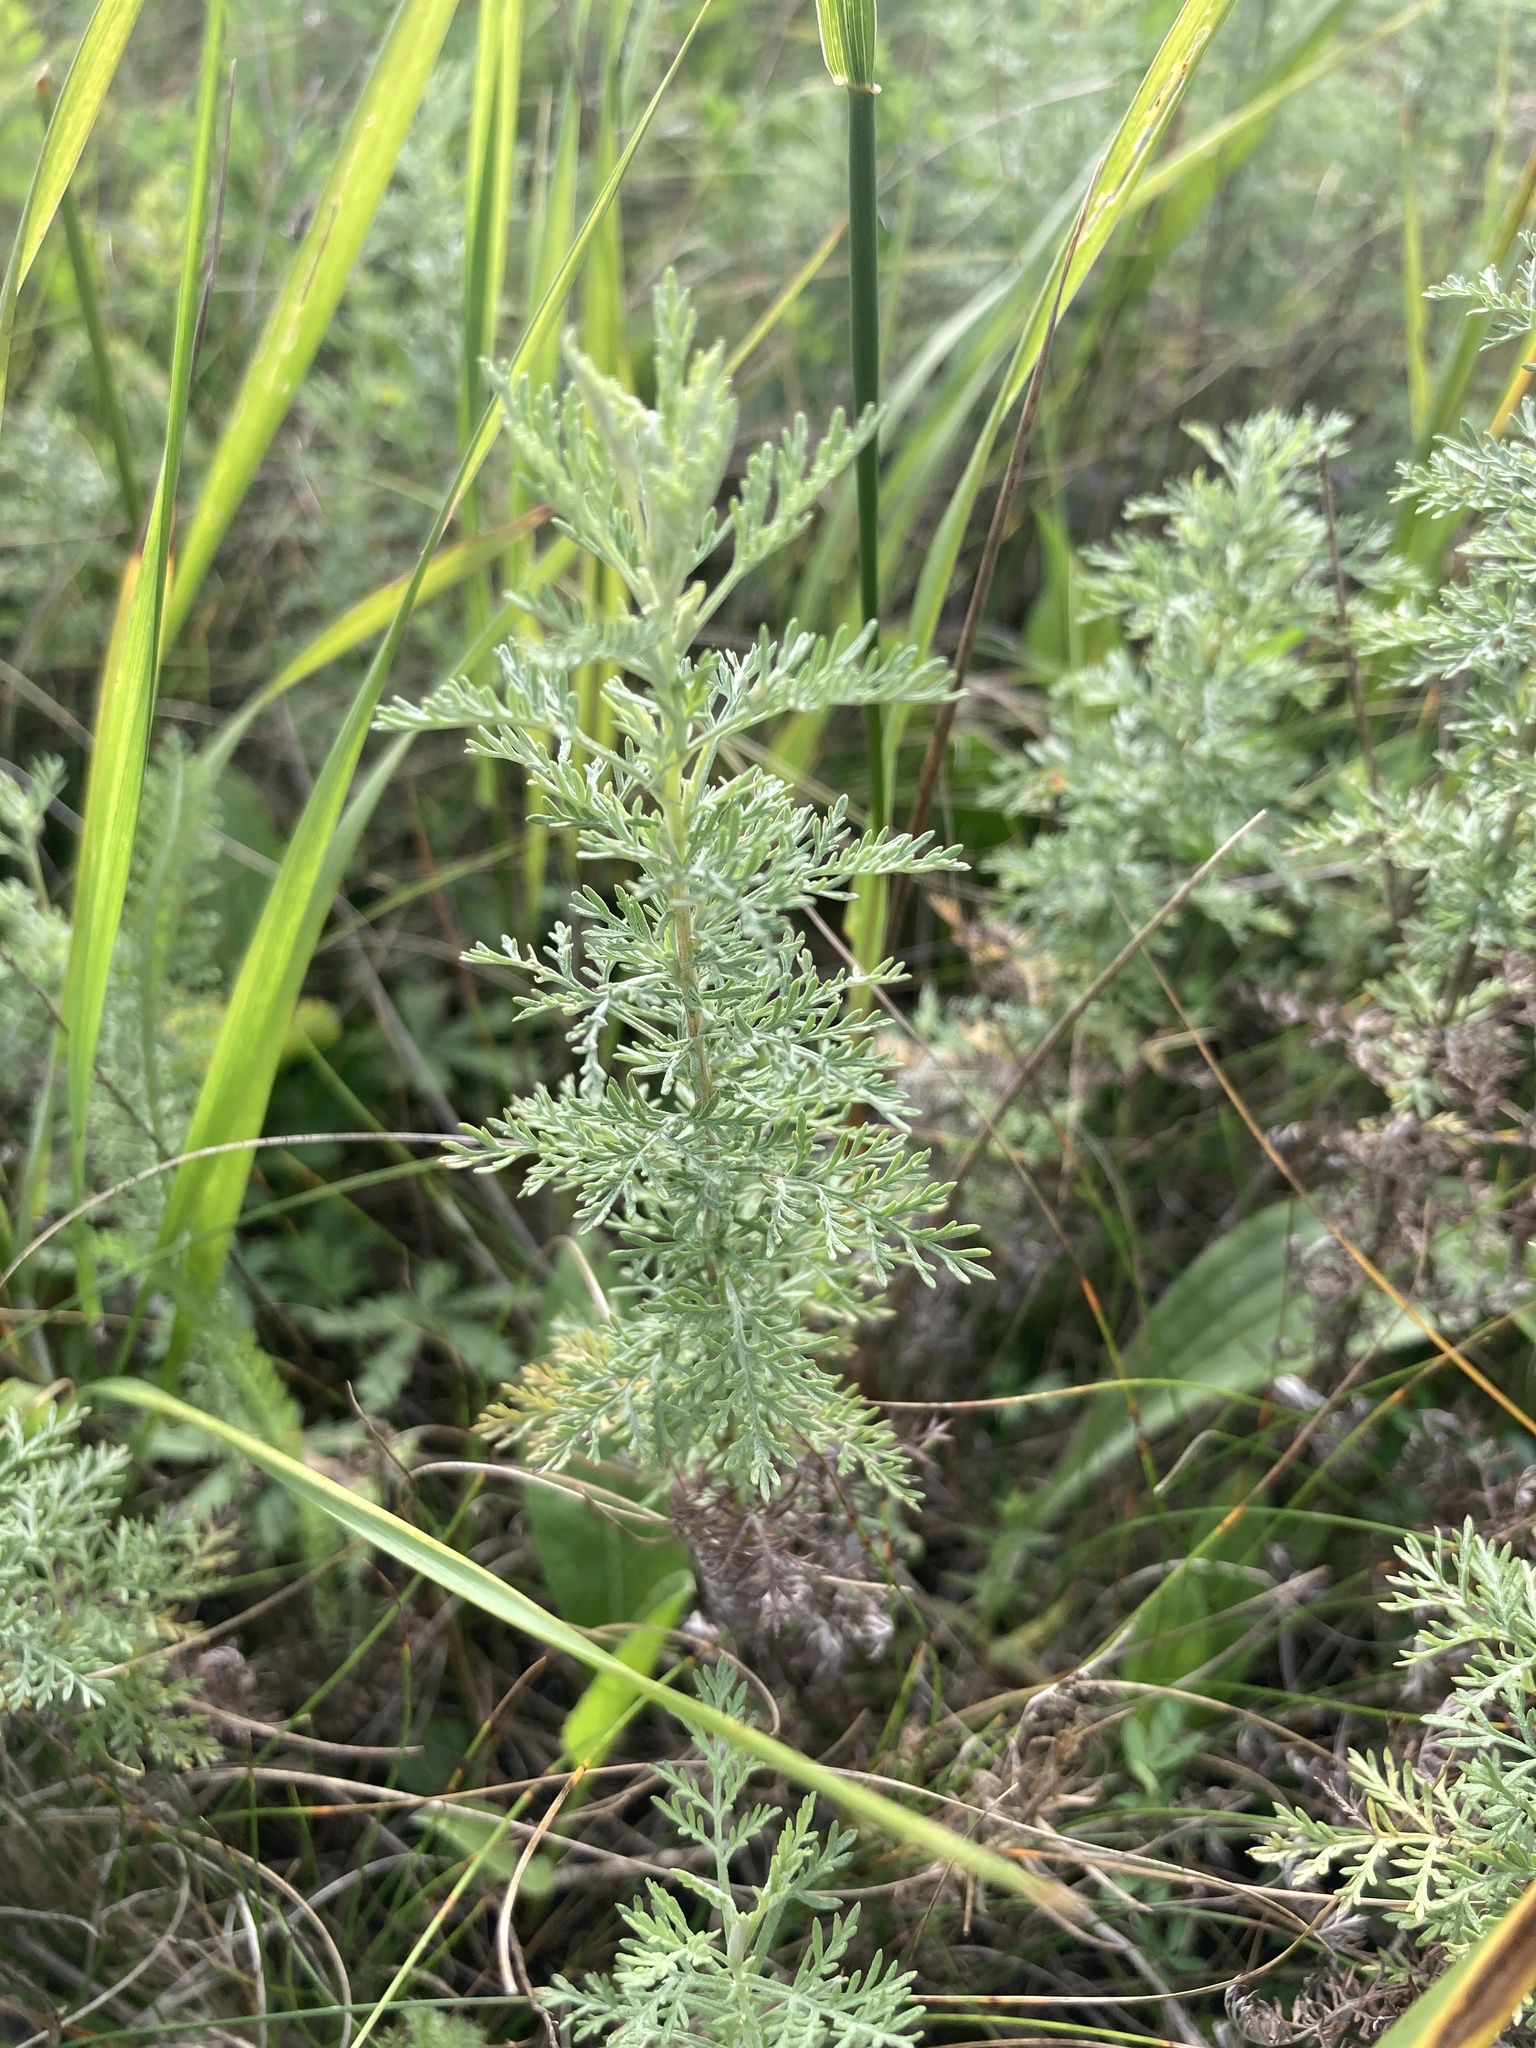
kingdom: Plantae
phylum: Tracheophyta
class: Magnoliopsida
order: Asterales
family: Asteraceae
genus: Artemisia
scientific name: Artemisia pontica
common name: Roman wormwood
